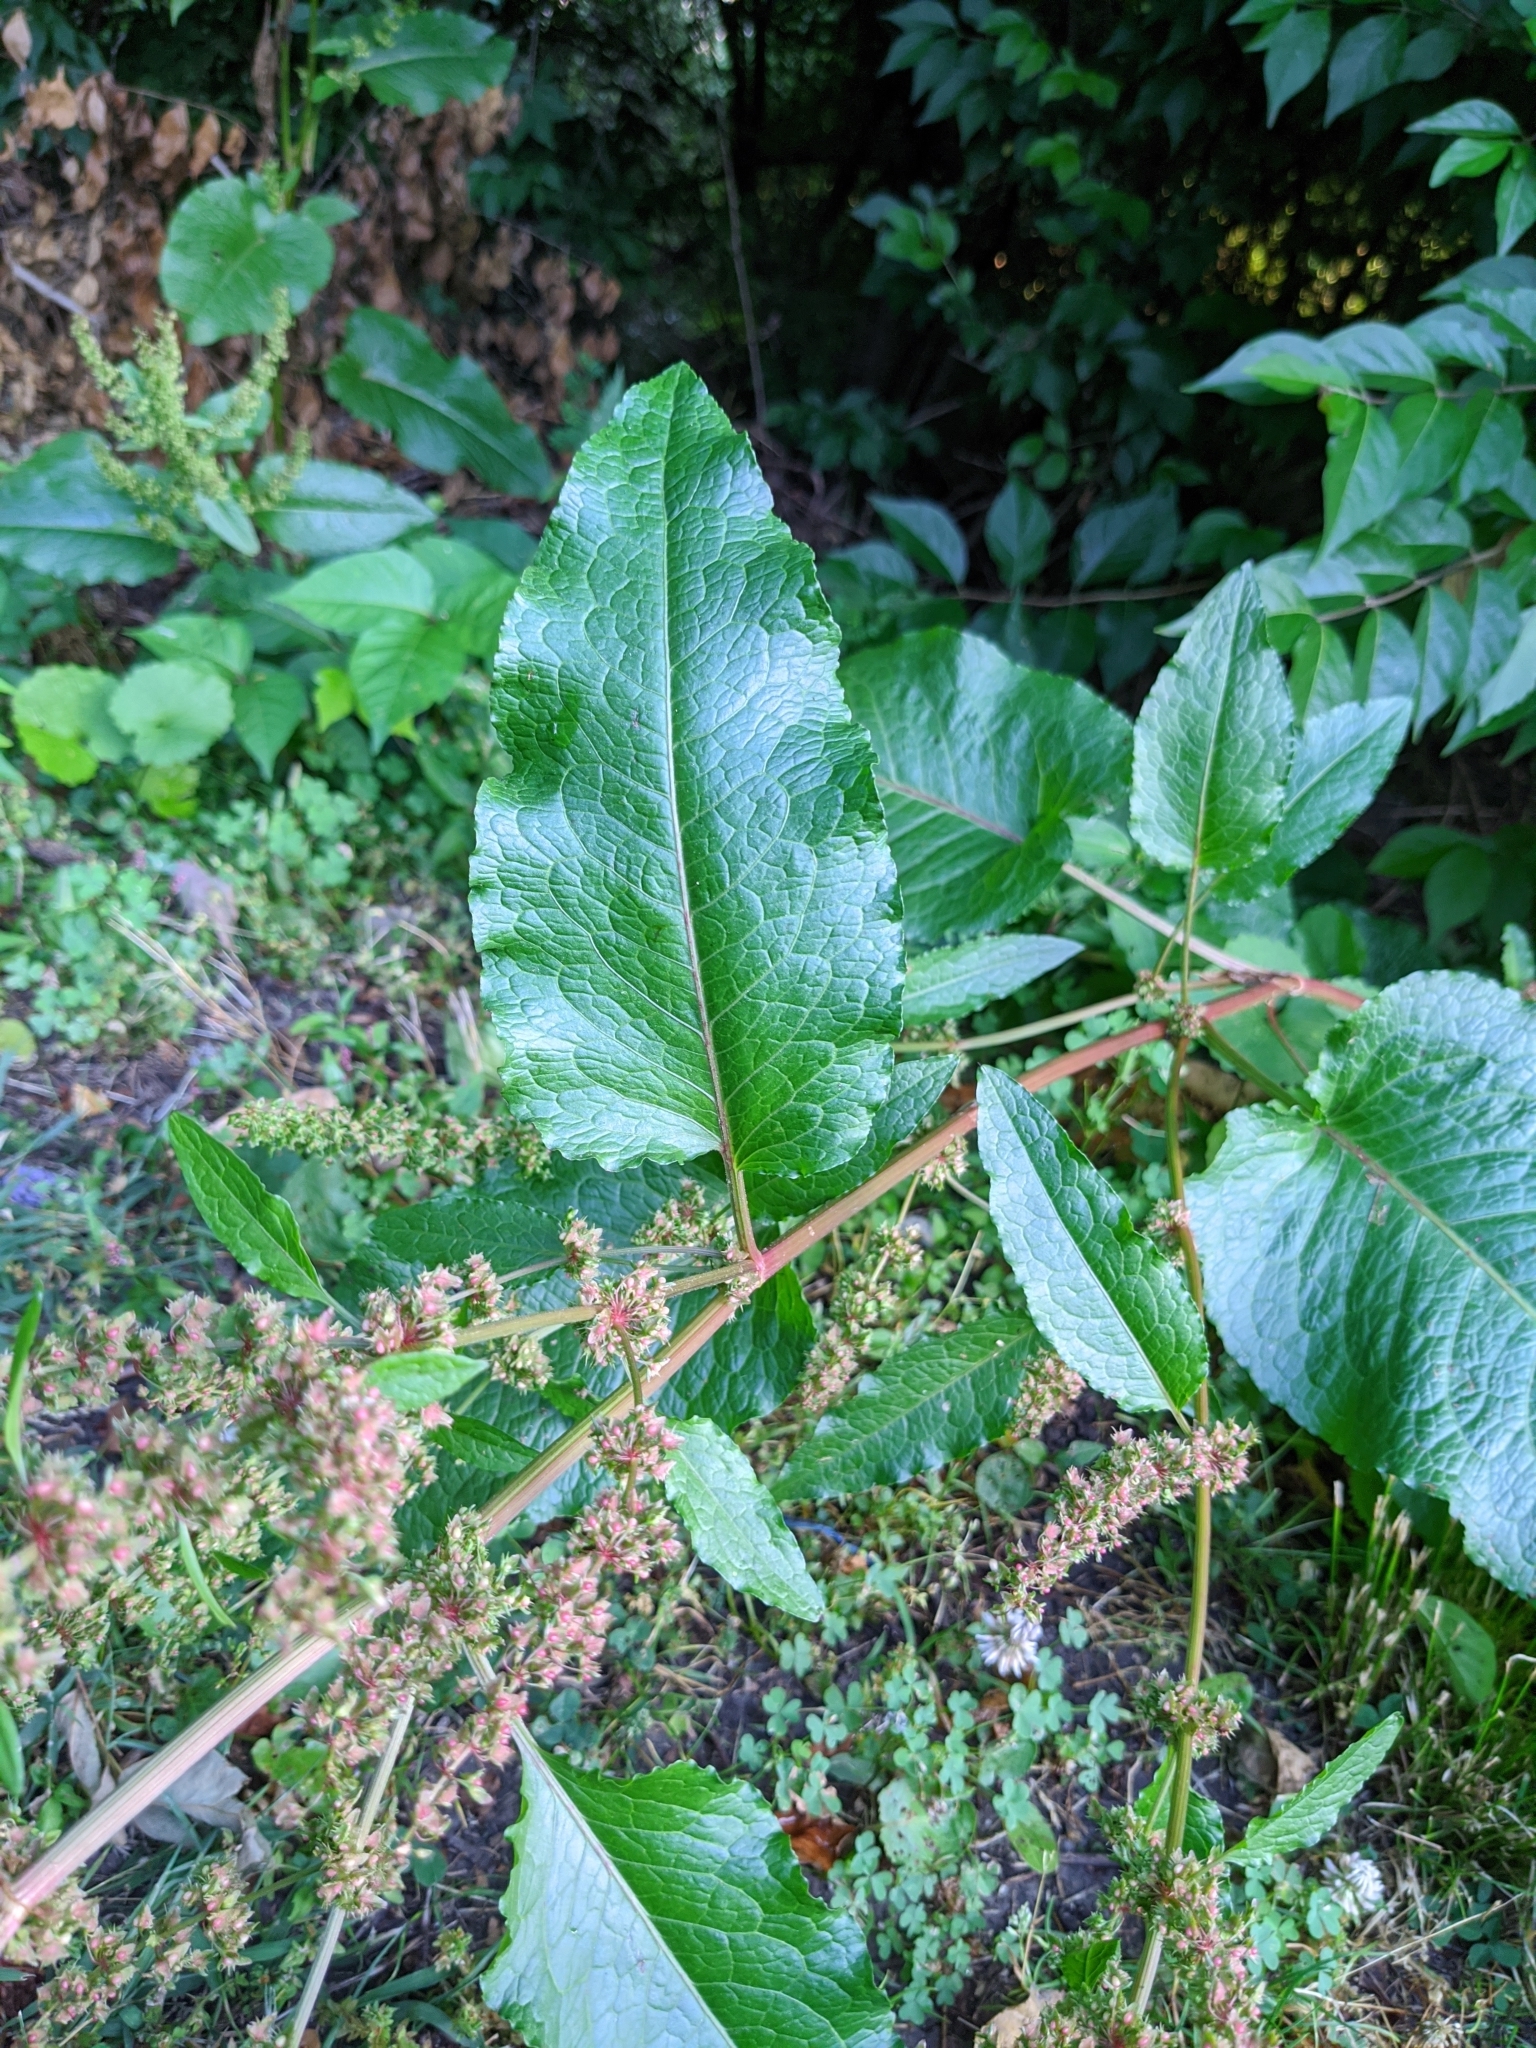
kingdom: Plantae
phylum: Tracheophyta
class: Magnoliopsida
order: Caryophyllales
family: Polygonaceae
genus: Rumex
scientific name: Rumex obtusifolius
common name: Bitter dock
